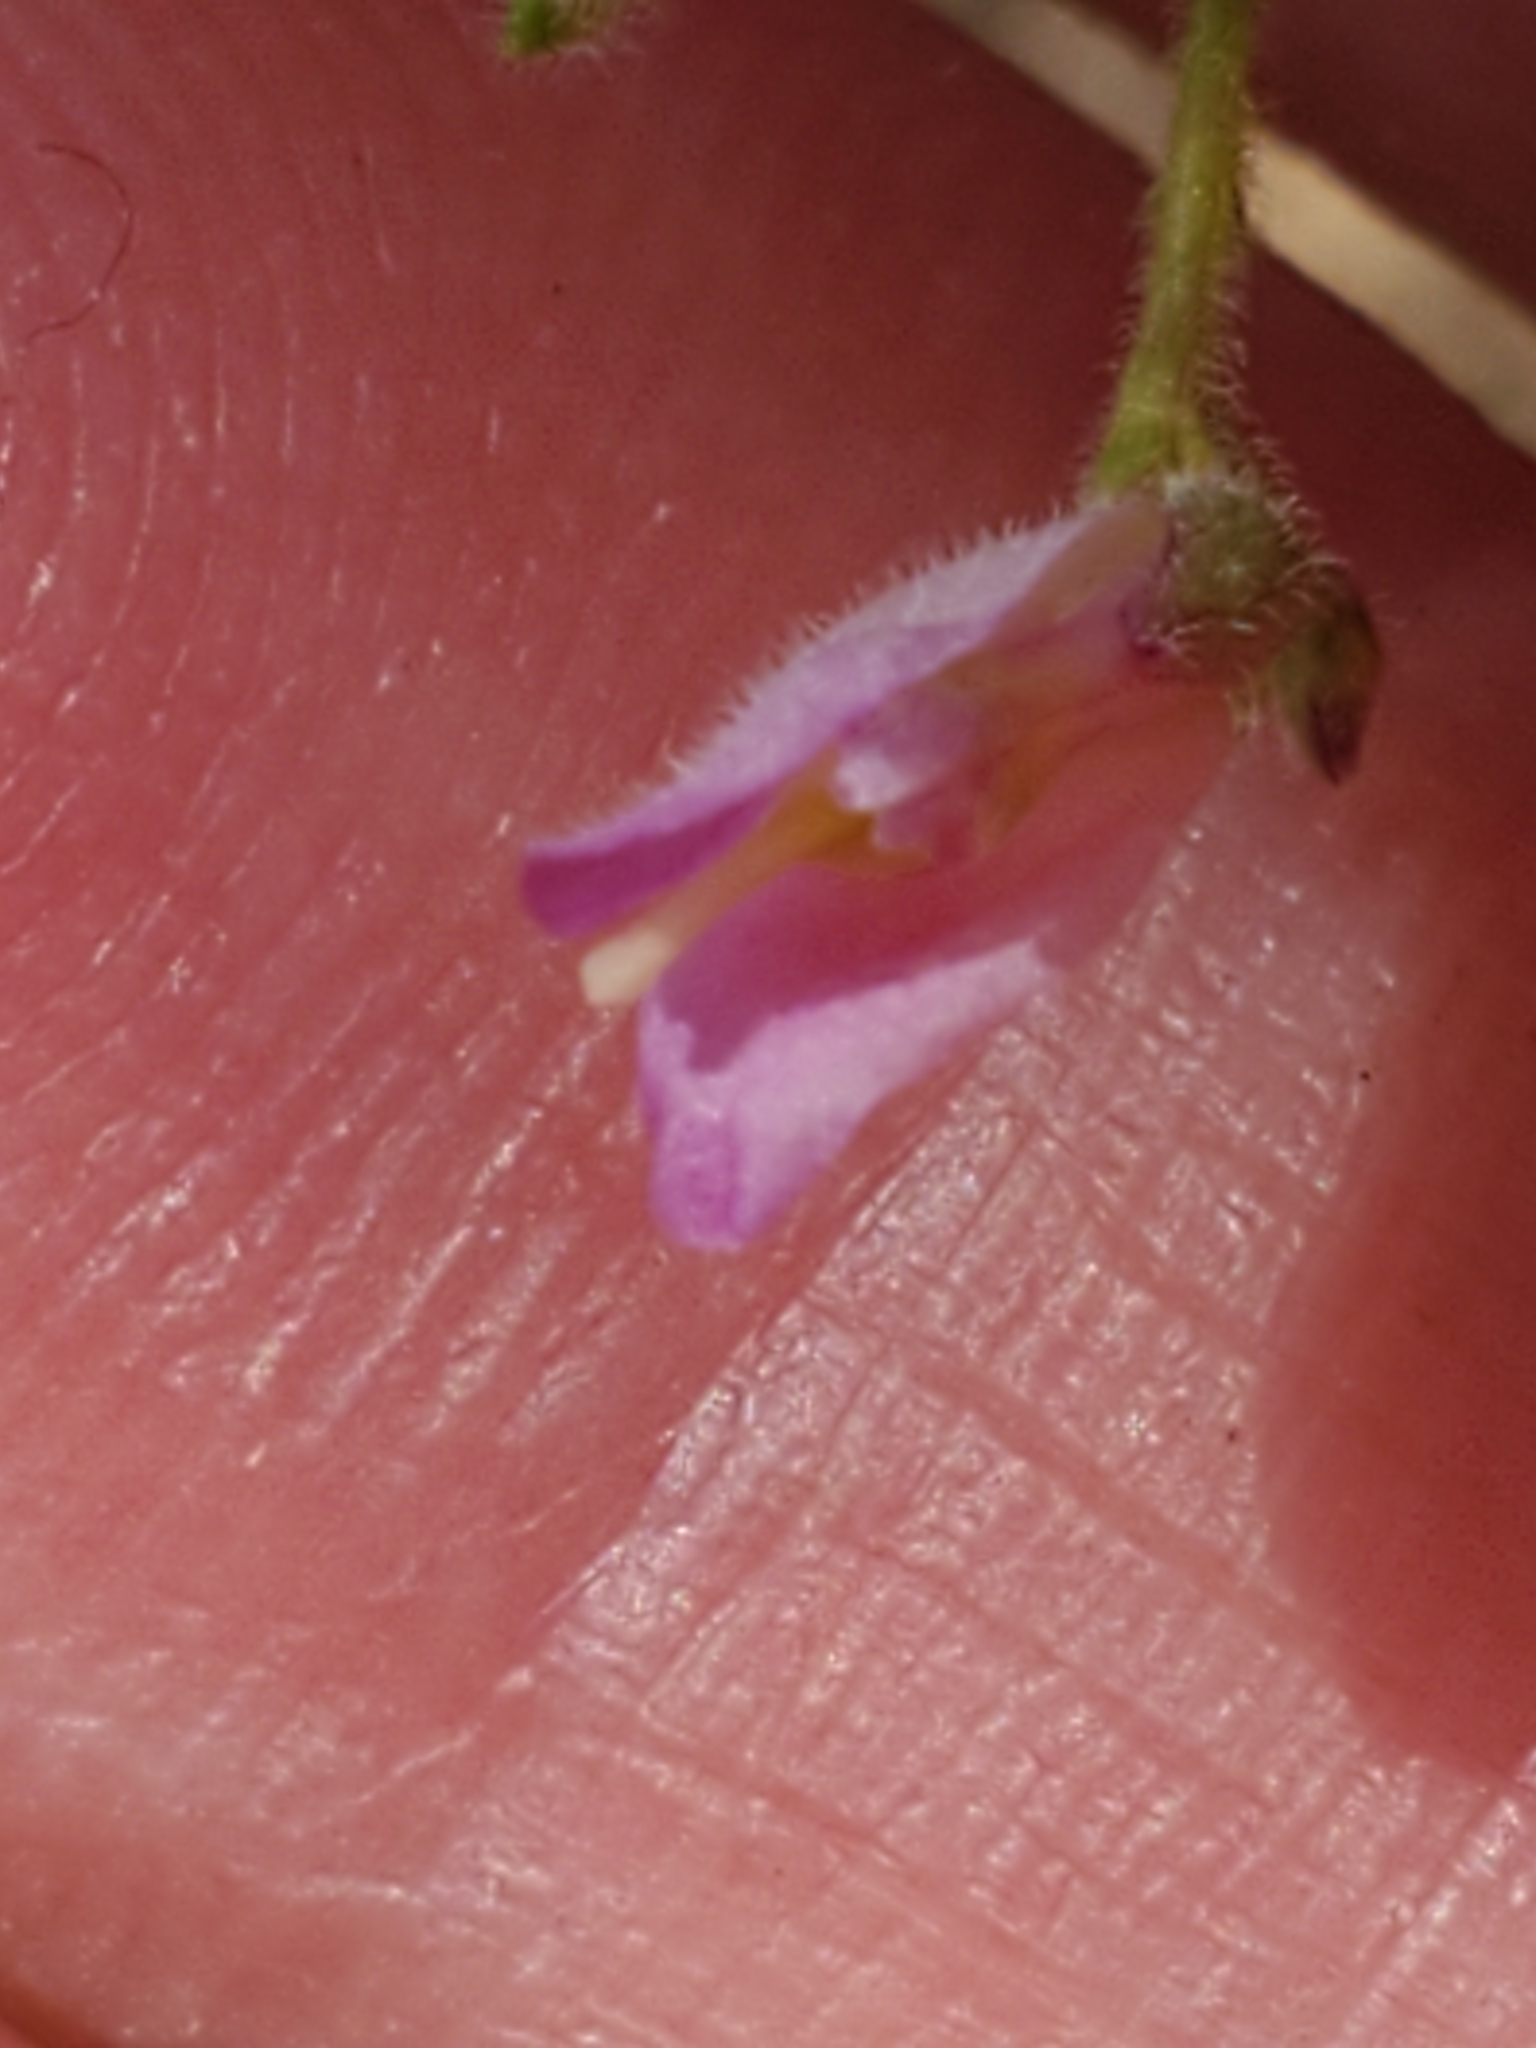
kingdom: Plantae
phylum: Tracheophyta
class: Magnoliopsida
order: Fabales
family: Polygalaceae
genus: Rhinotropis
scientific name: Rhinotropis lindheimeri
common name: Shrubby milkwort
